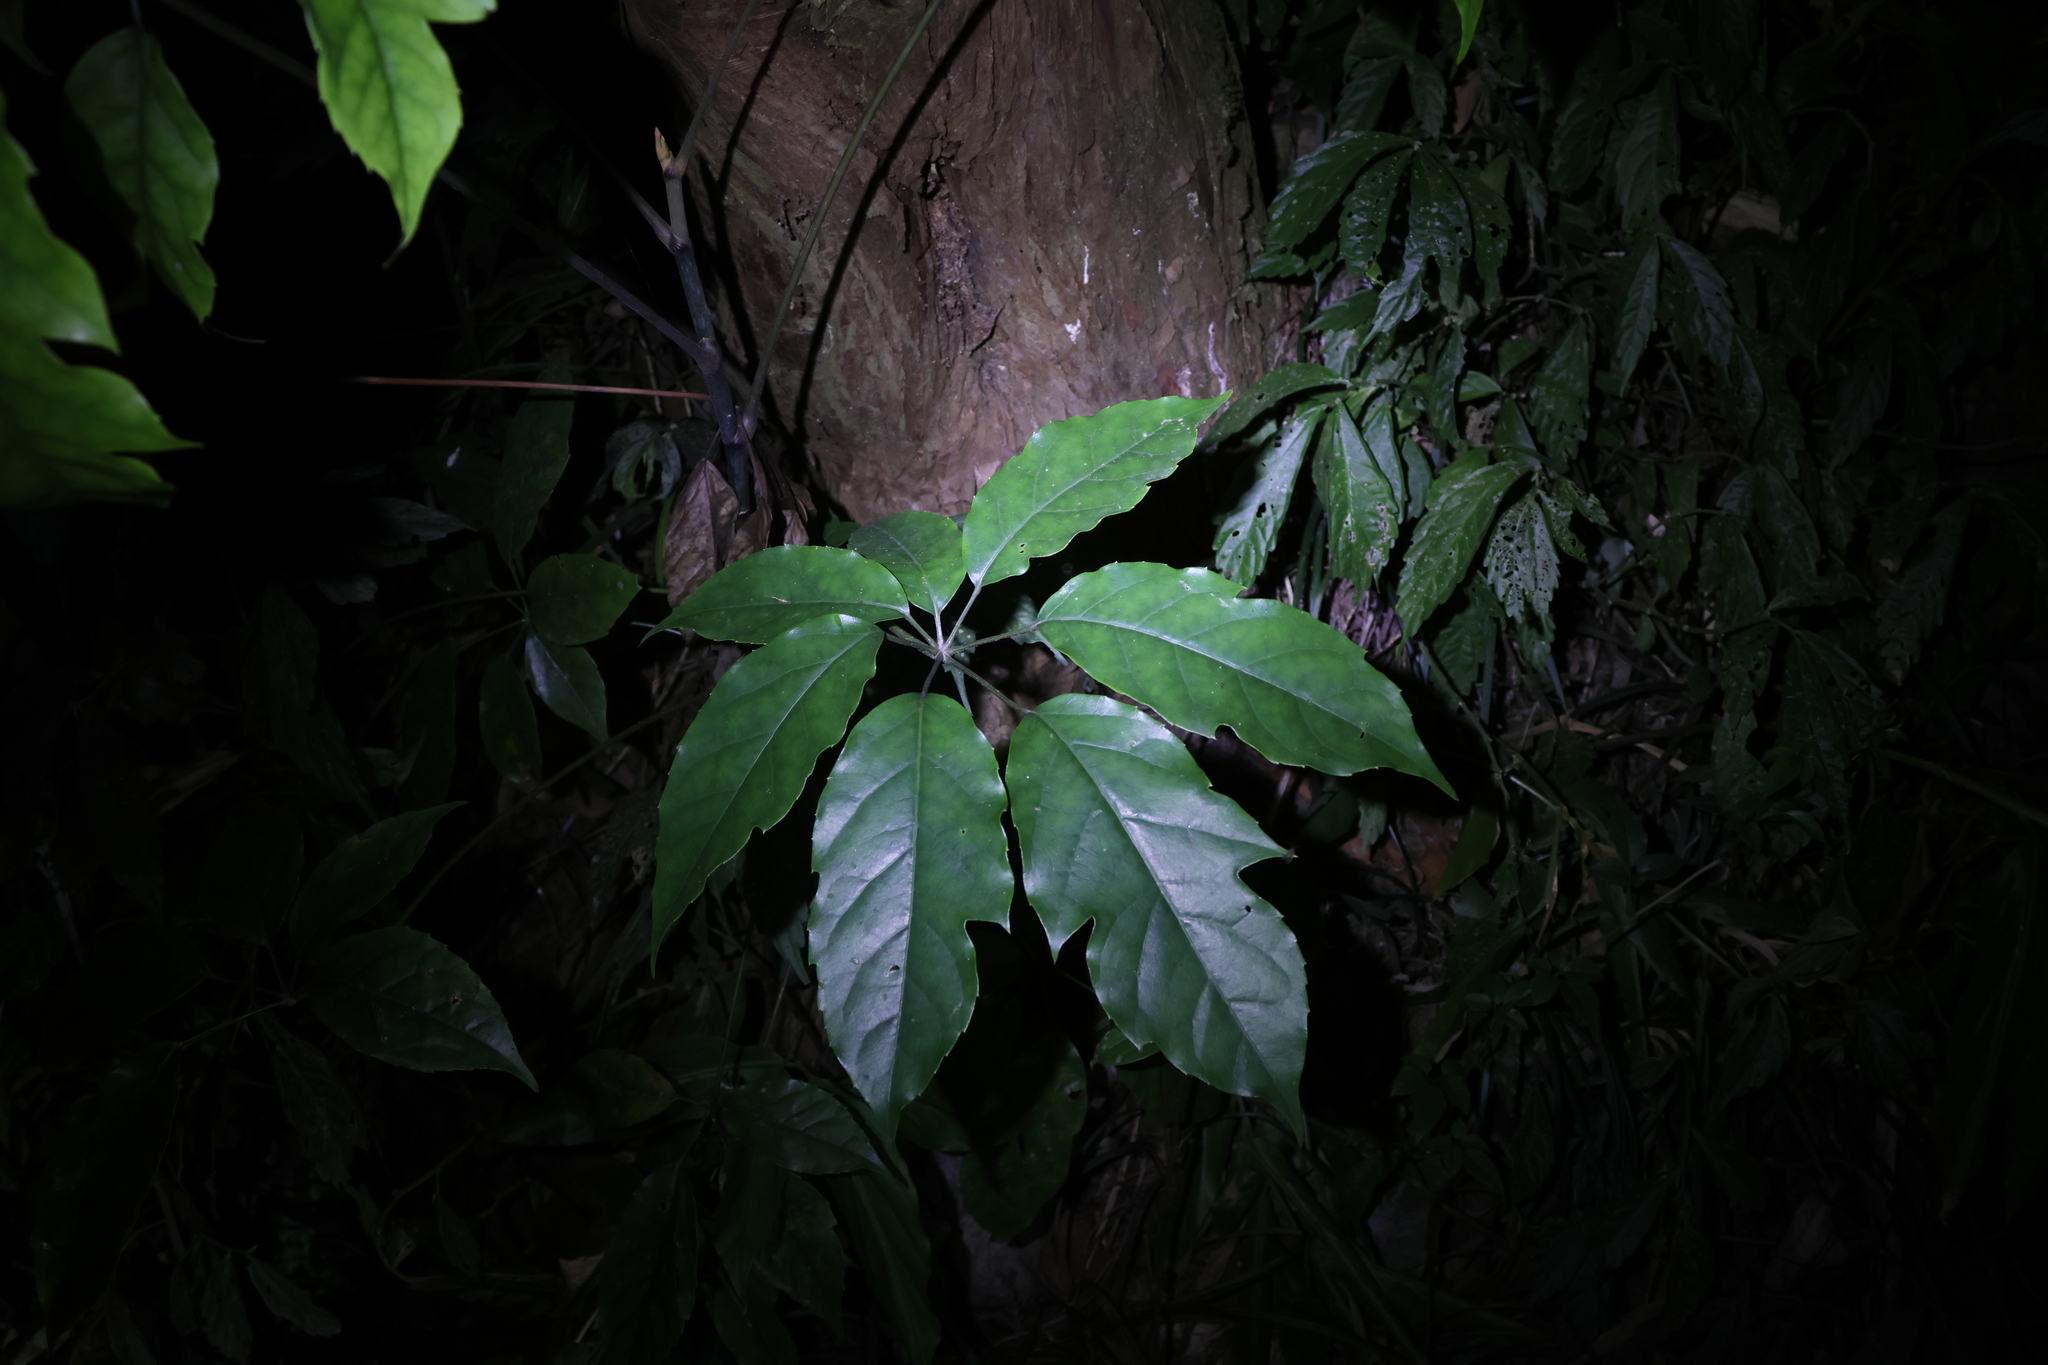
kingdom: Plantae
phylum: Tracheophyta
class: Magnoliopsida
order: Apiales
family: Araliaceae
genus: Heptapleurum
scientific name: Heptapleurum heptaphyllum
